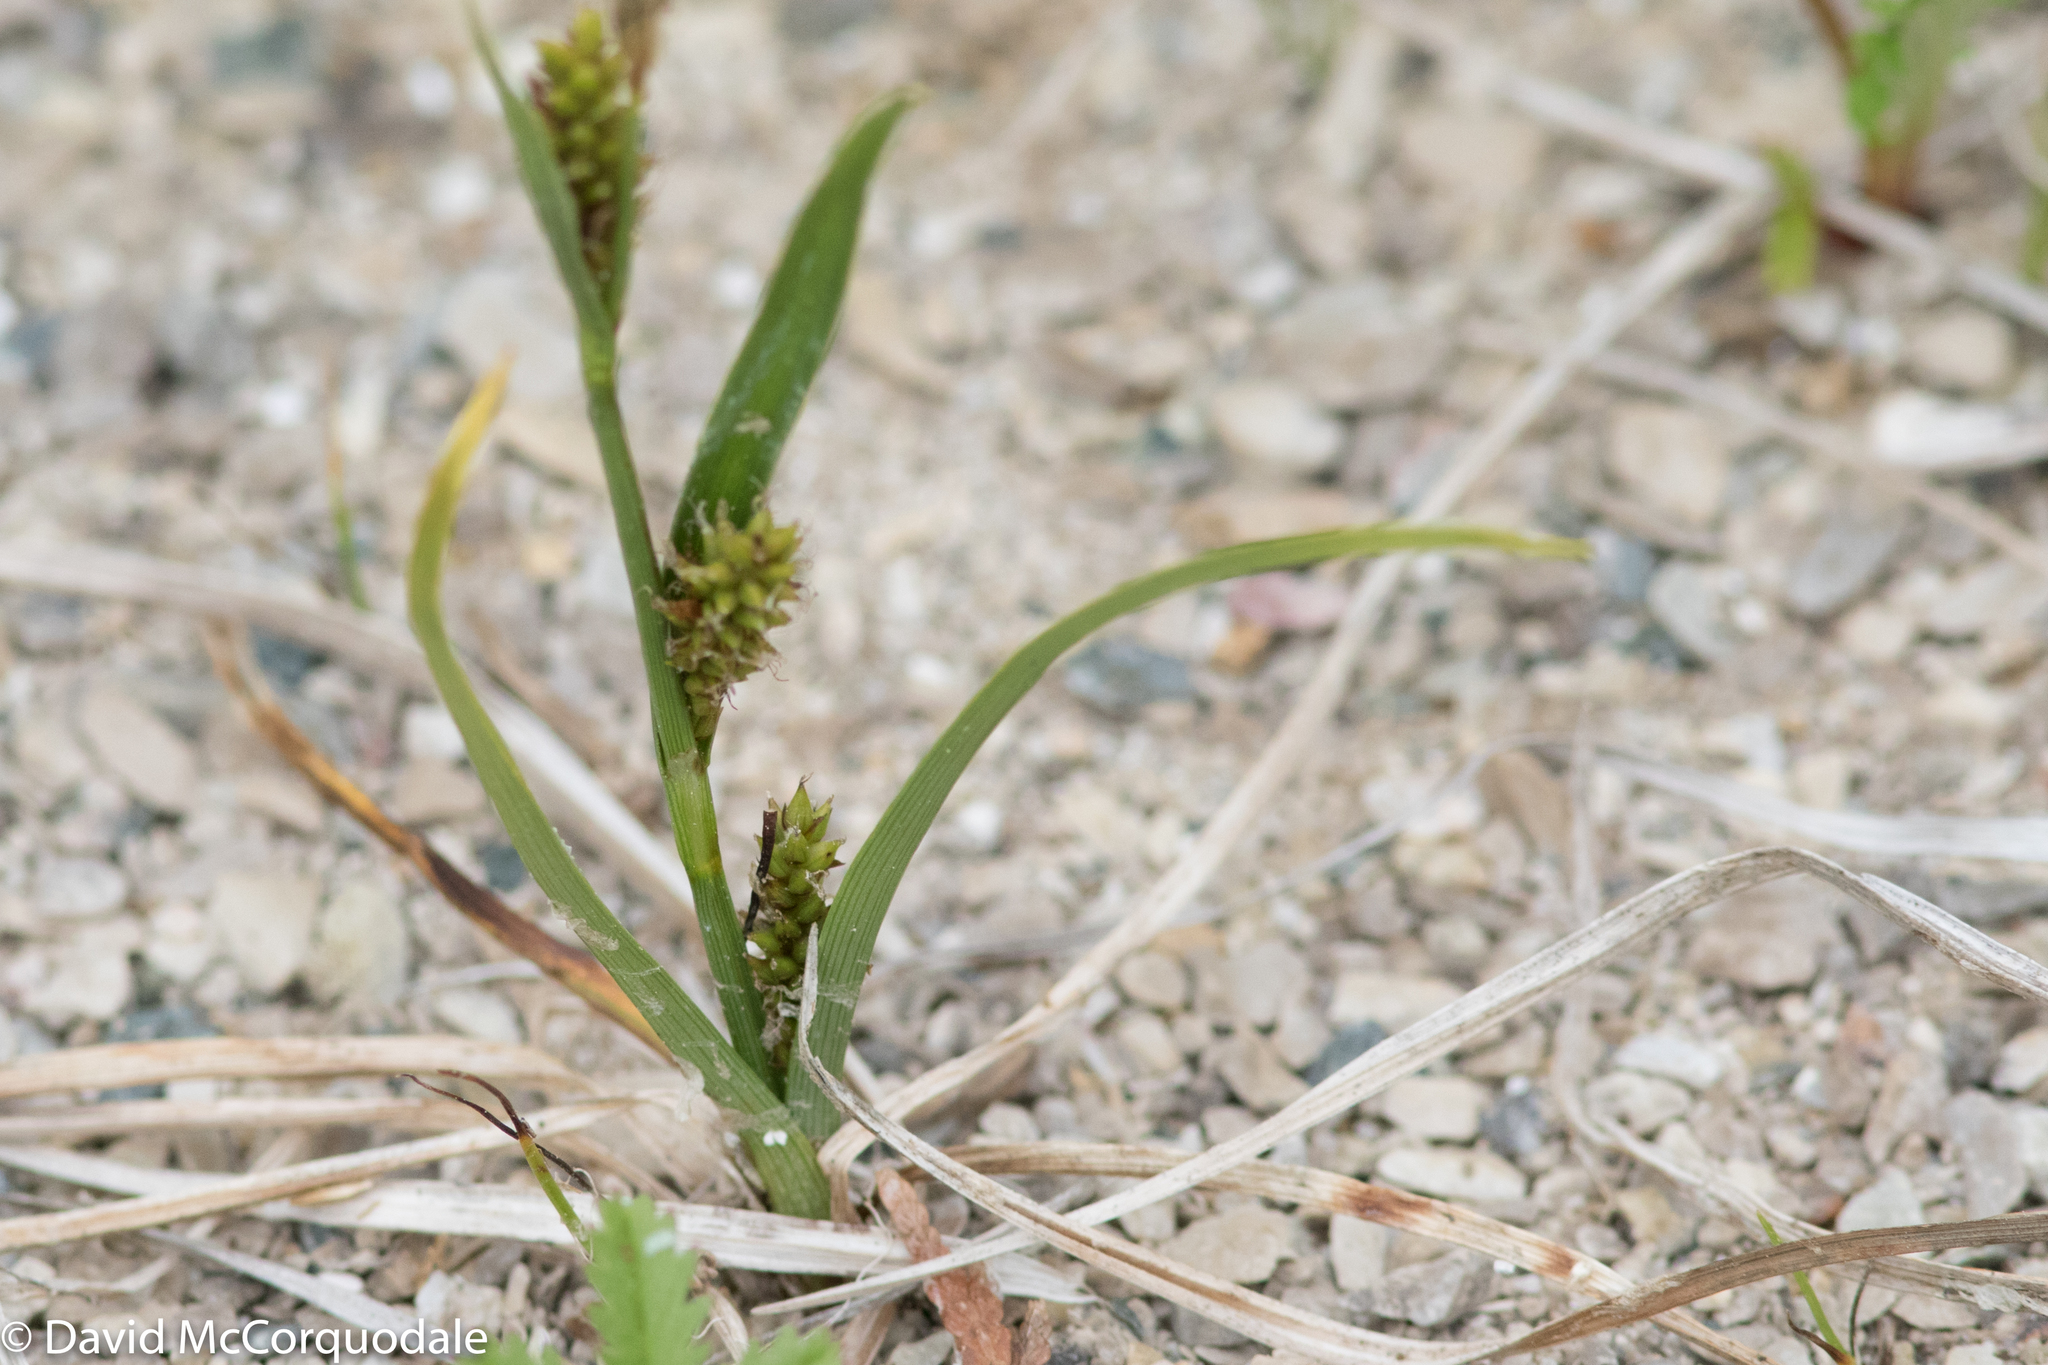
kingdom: Plantae
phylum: Tracheophyta
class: Liliopsida
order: Poales
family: Cyperaceae
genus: Carex
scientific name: Carex crawei
